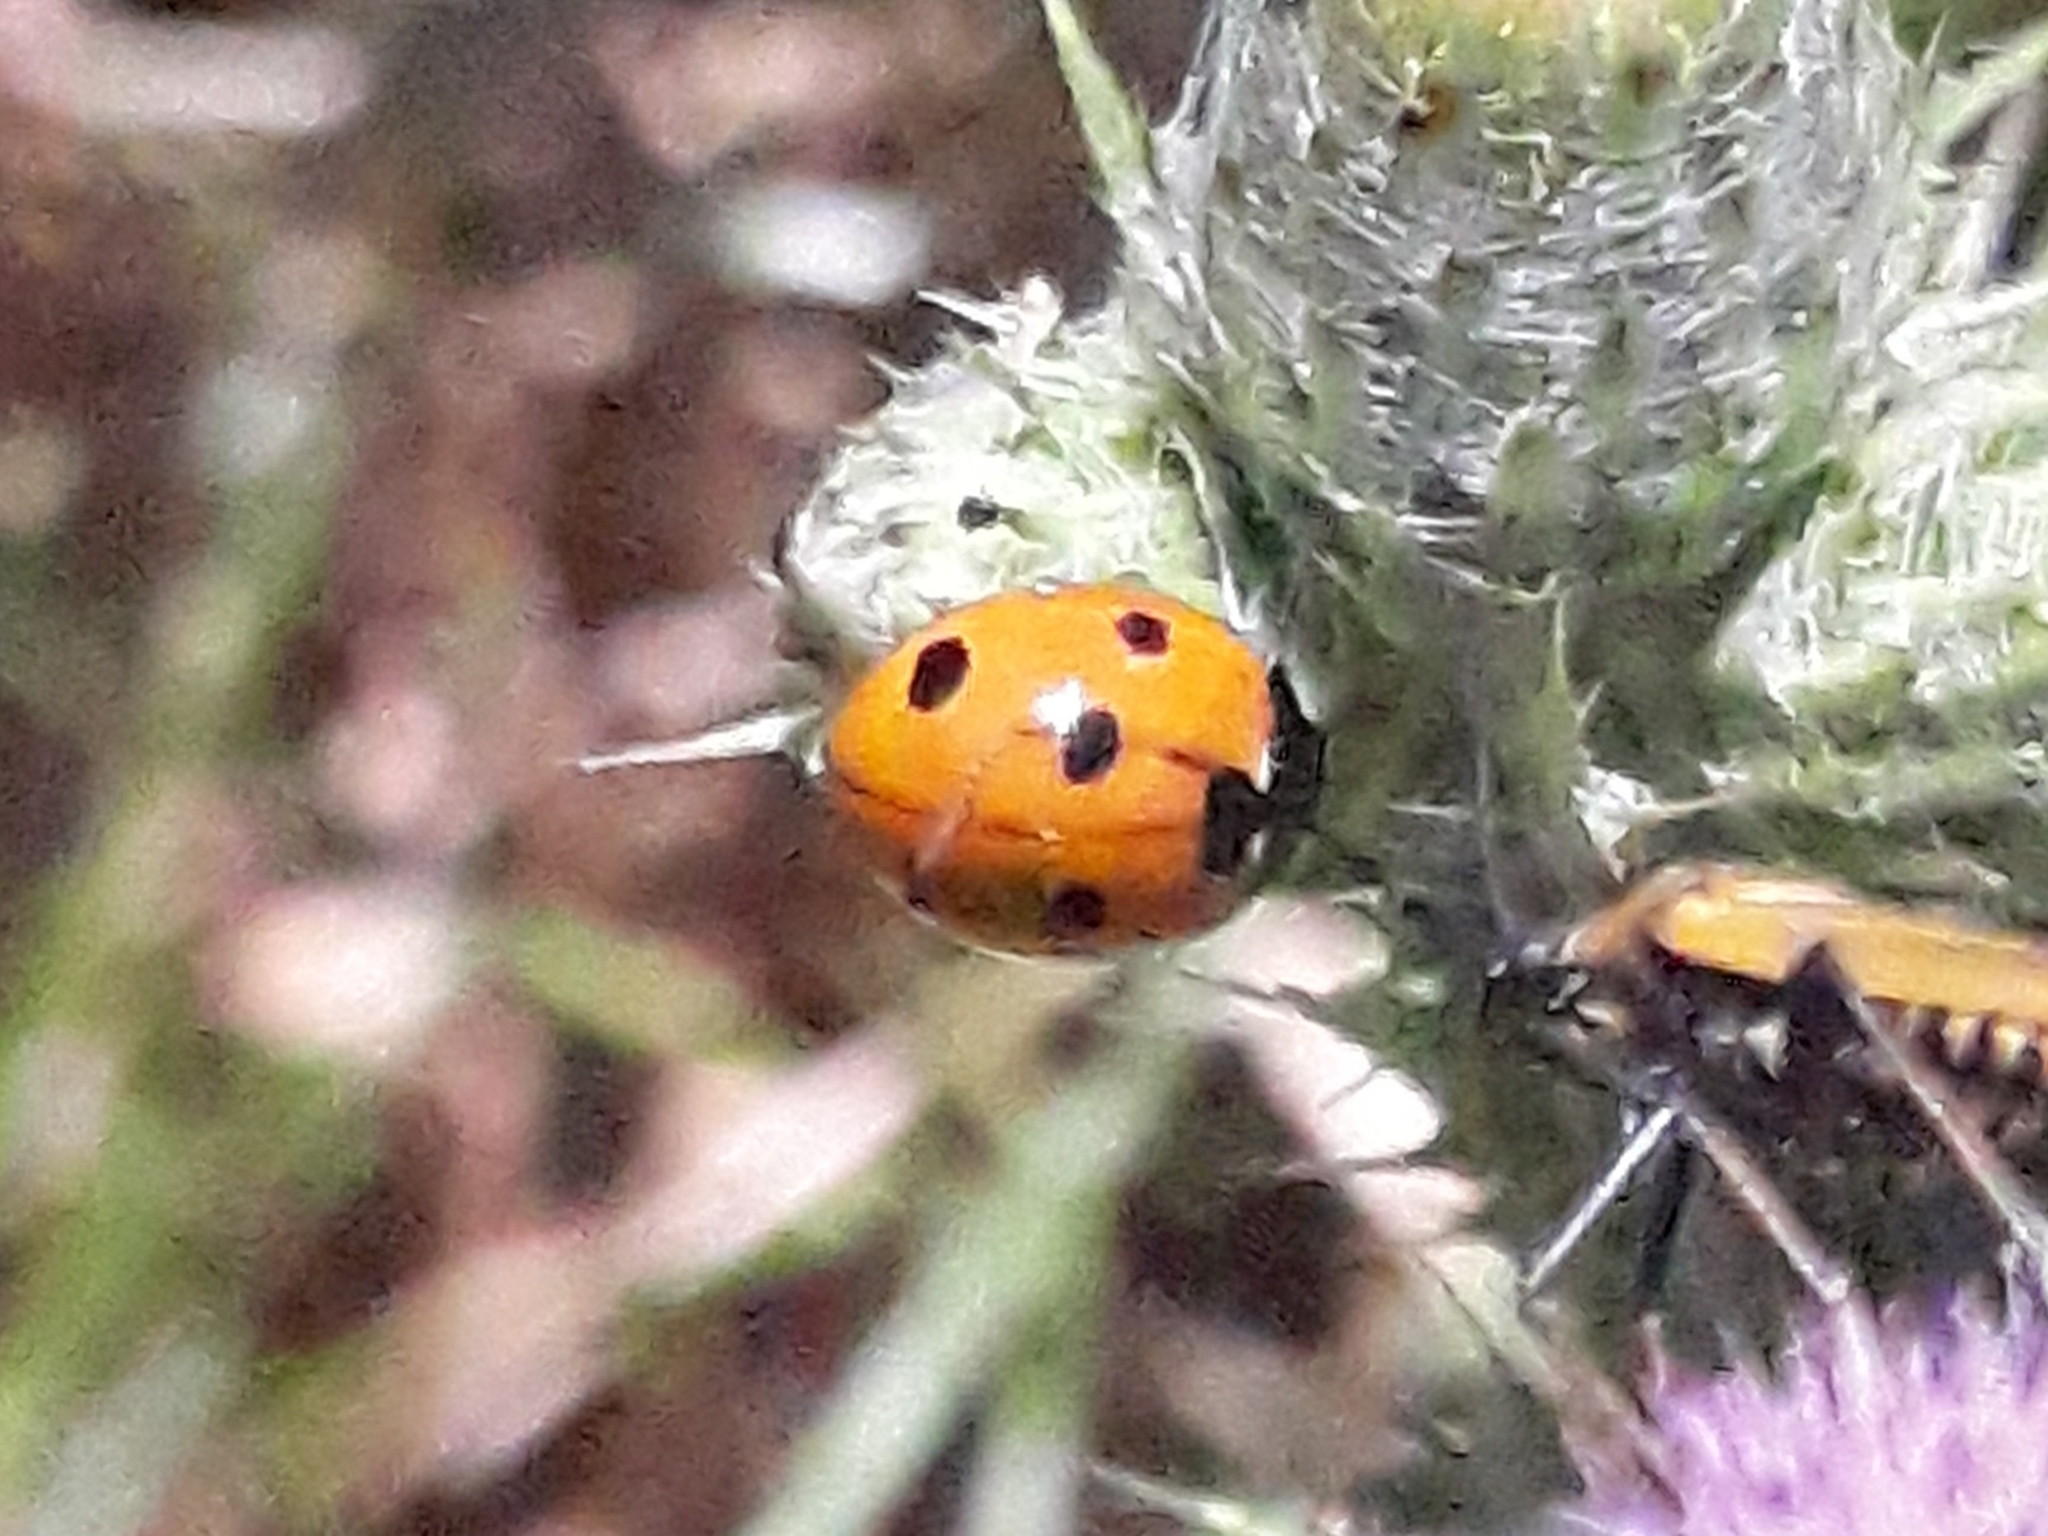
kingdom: Animalia
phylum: Arthropoda
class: Insecta
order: Coleoptera
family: Coccinellidae
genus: Coccinella
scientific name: Coccinella algerica
